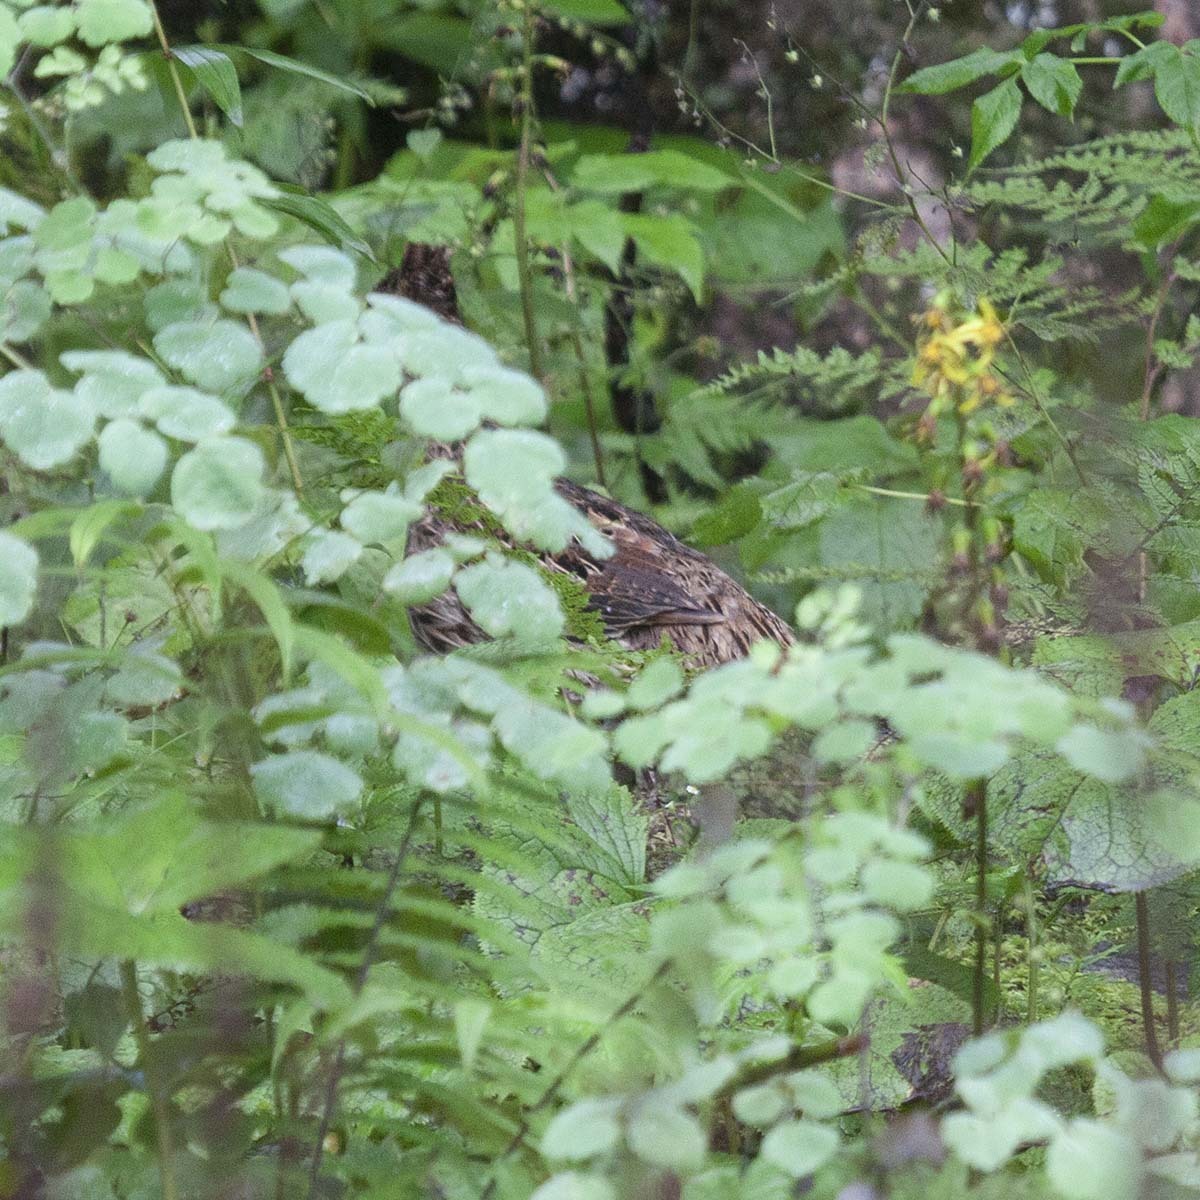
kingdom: Animalia
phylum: Chordata
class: Aves
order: Galliformes
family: Phasianidae
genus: Lophophorus
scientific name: Lophophorus impejanus
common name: Himalayan monal
